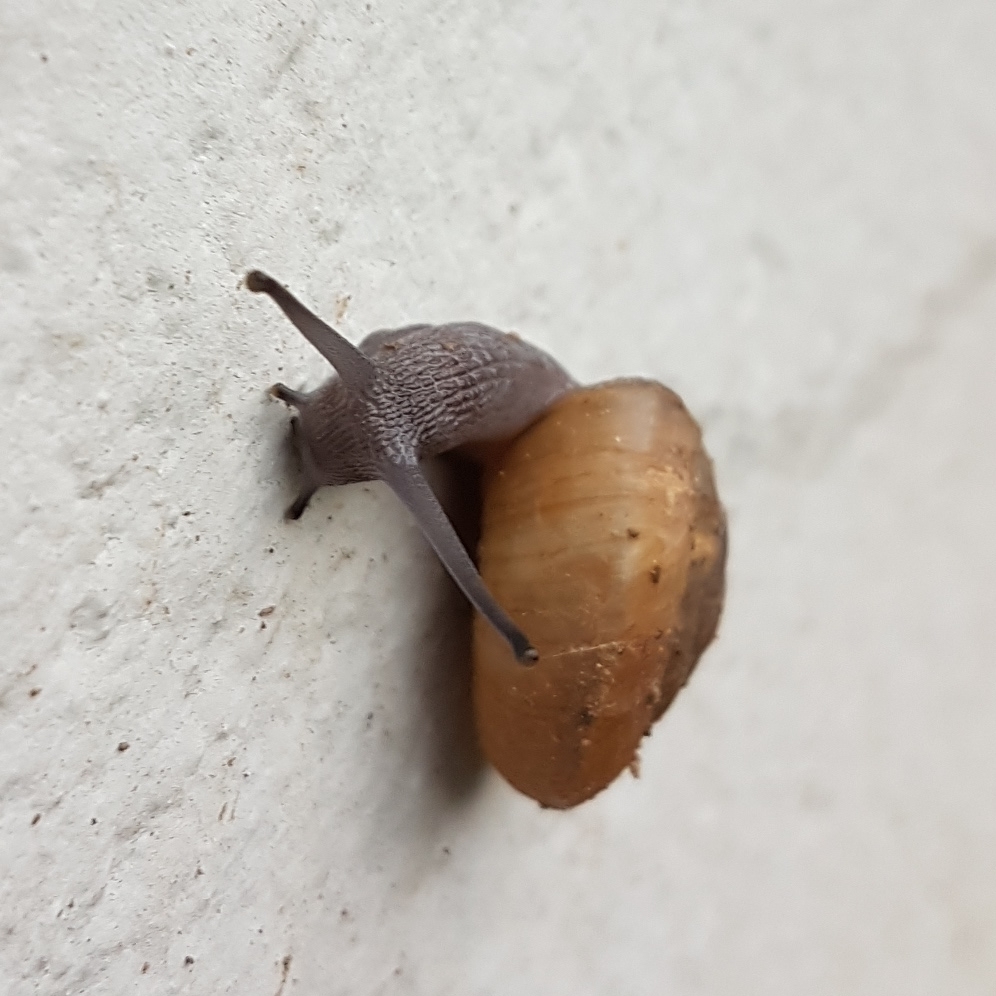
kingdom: Animalia
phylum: Mollusca
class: Gastropoda
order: Stylommatophora
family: Zonitidae
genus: Zonites
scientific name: Zonites algirus
